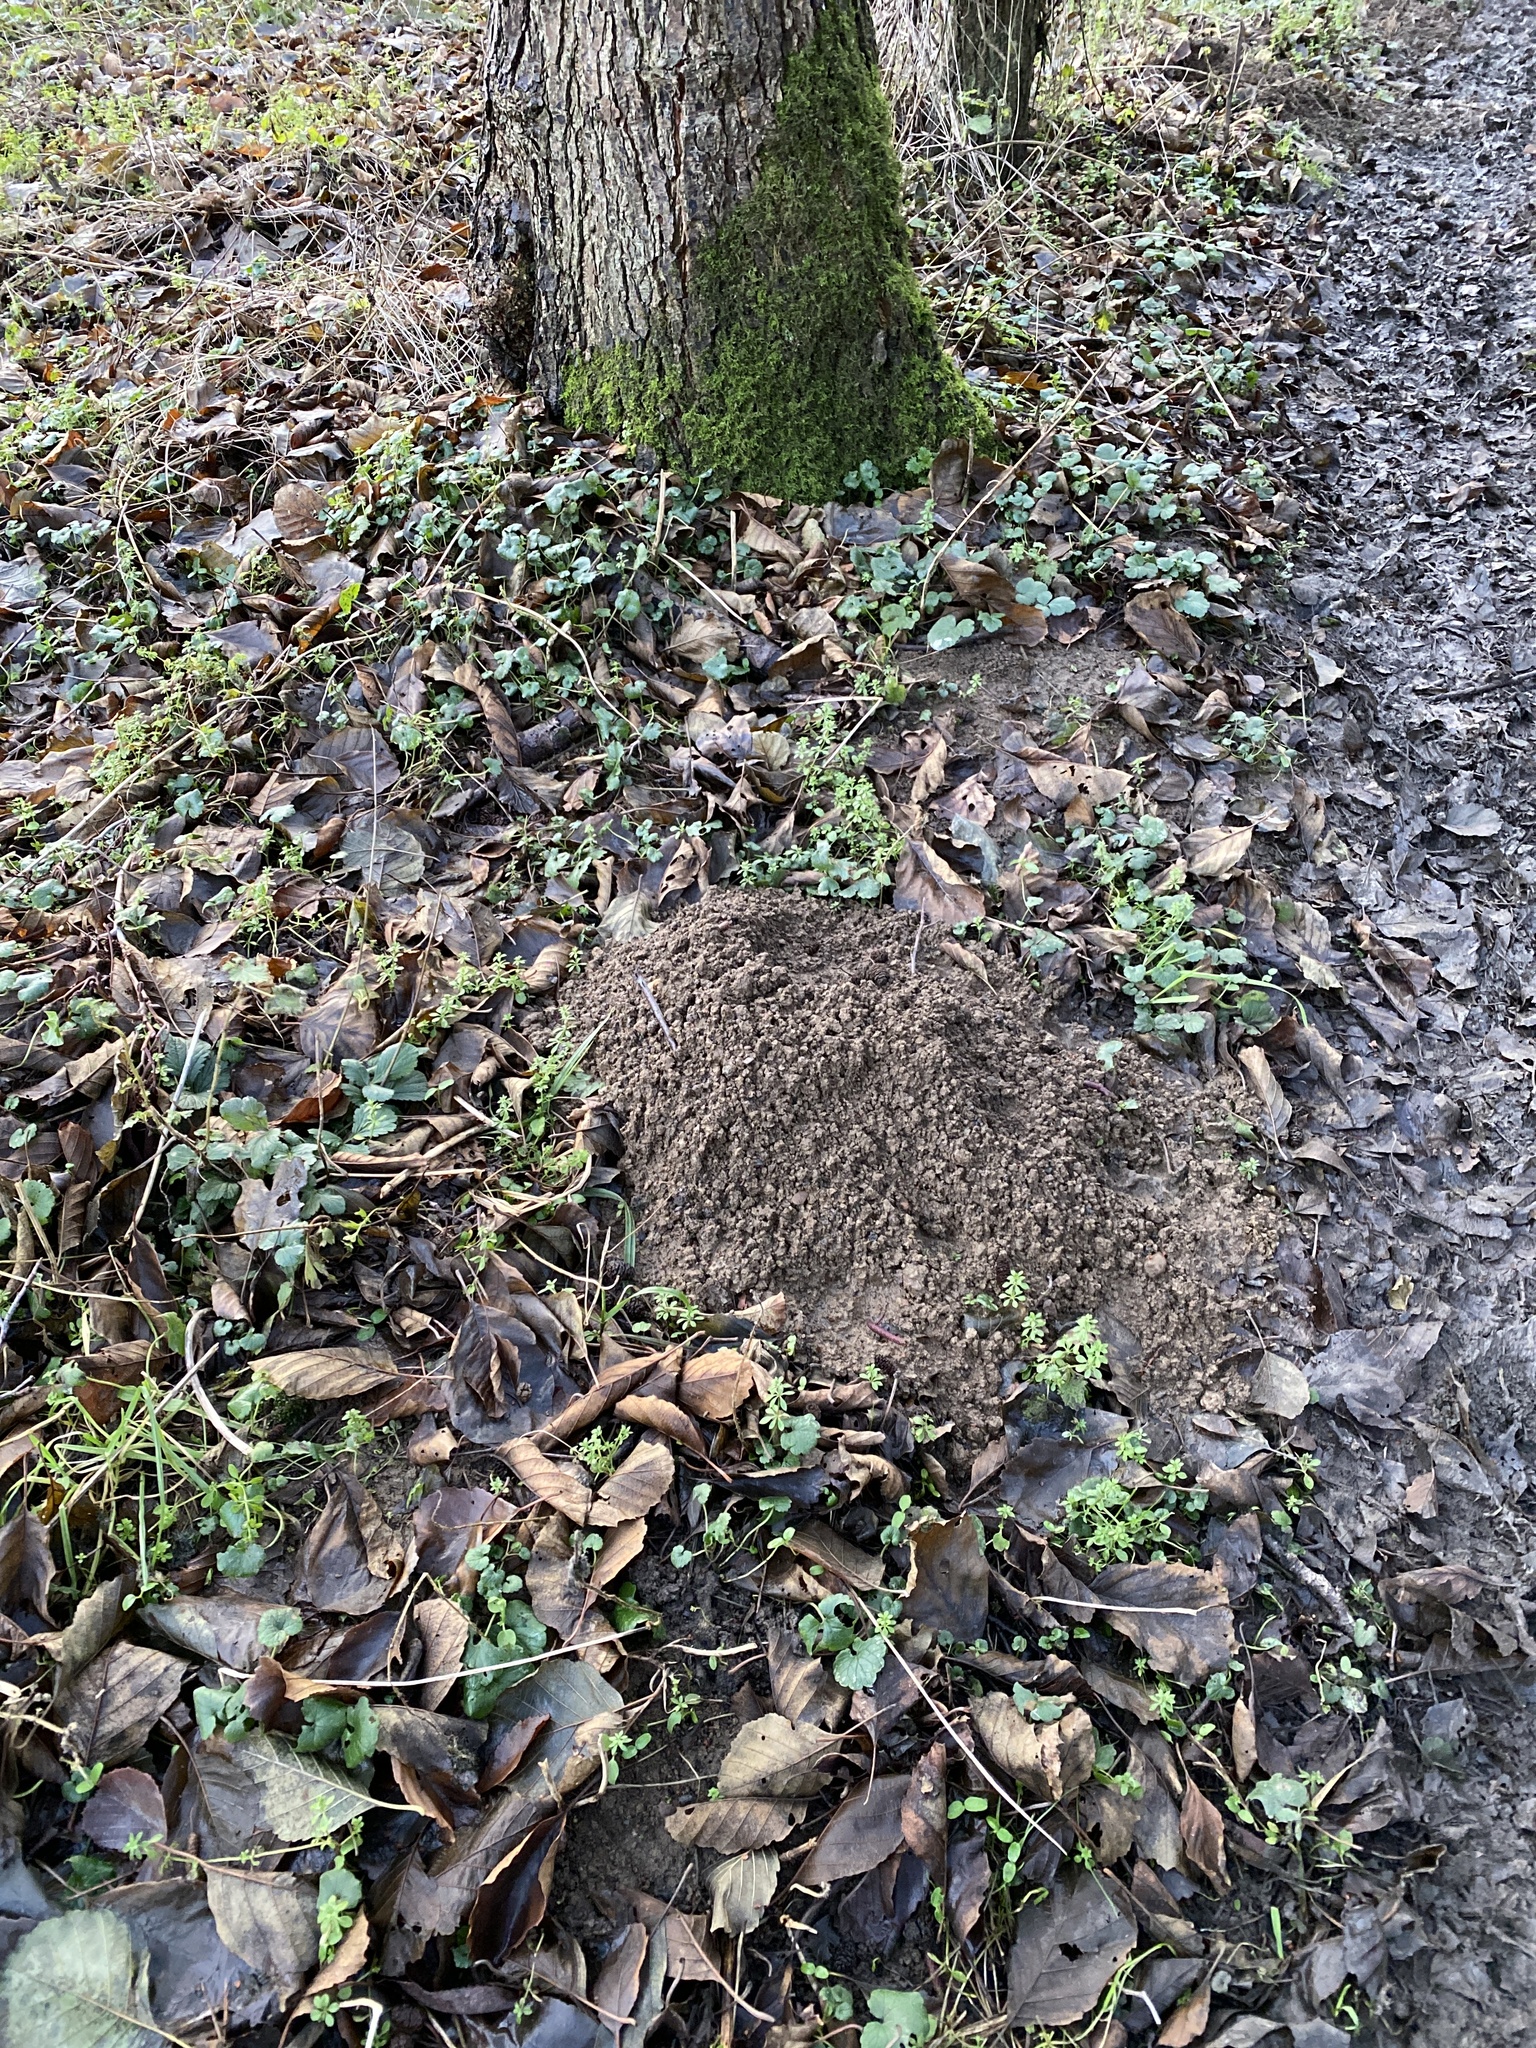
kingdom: Animalia
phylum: Chordata
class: Mammalia
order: Soricomorpha
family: Talpidae
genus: Talpa
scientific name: Talpa europaea
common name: European mole
